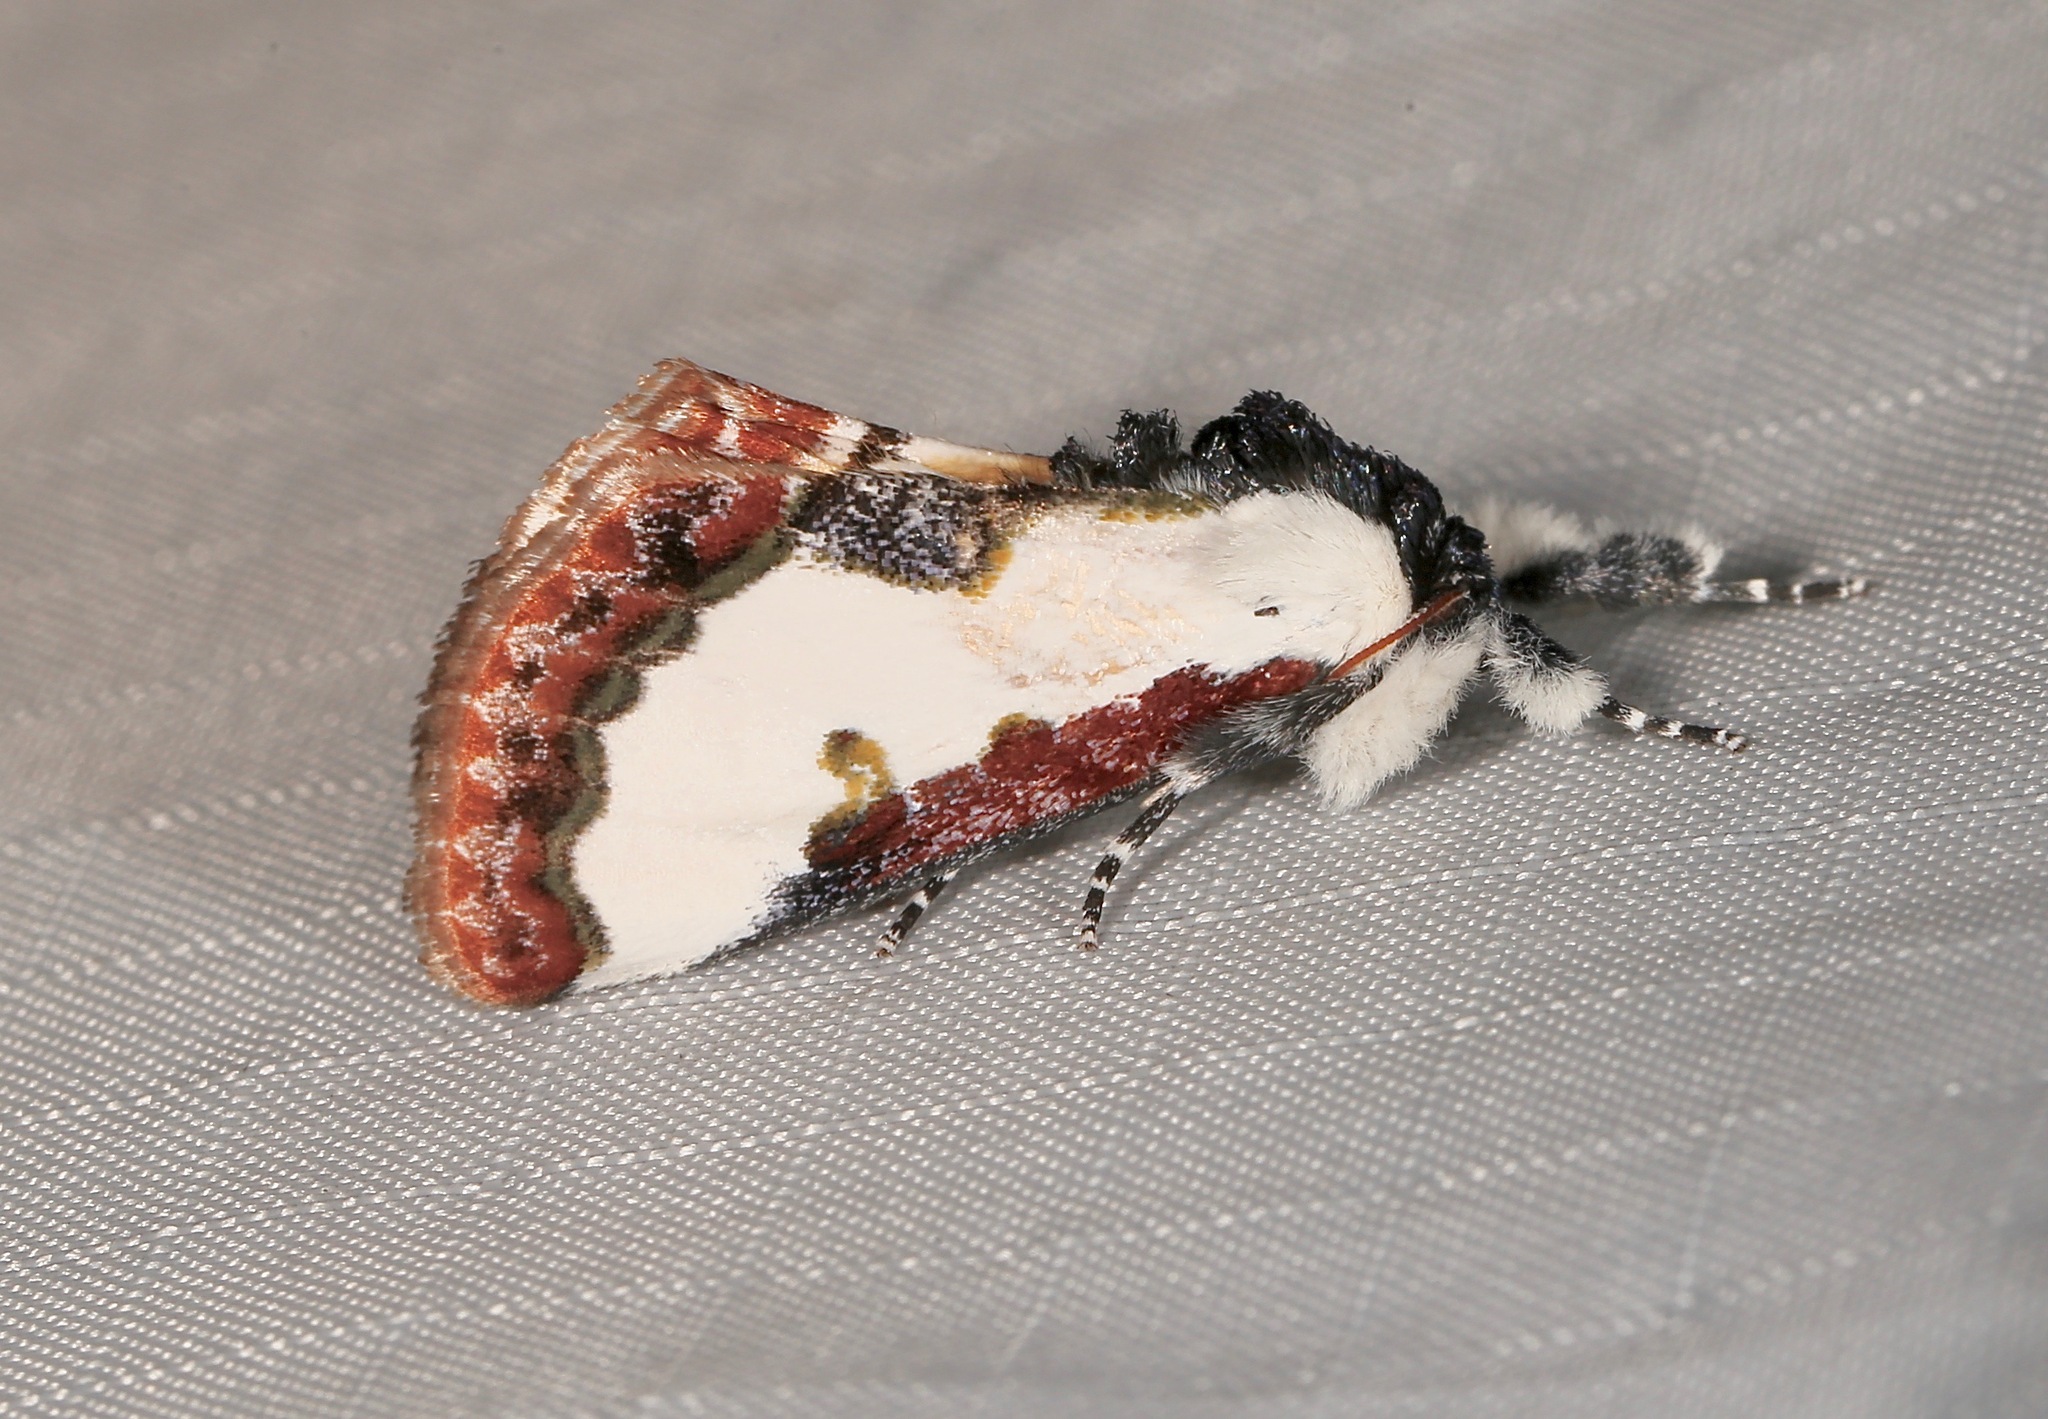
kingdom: Animalia
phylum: Arthropoda
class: Insecta
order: Lepidoptera
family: Noctuidae
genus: Eudryas
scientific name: Eudryas unio
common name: Pearly wood-nymph
